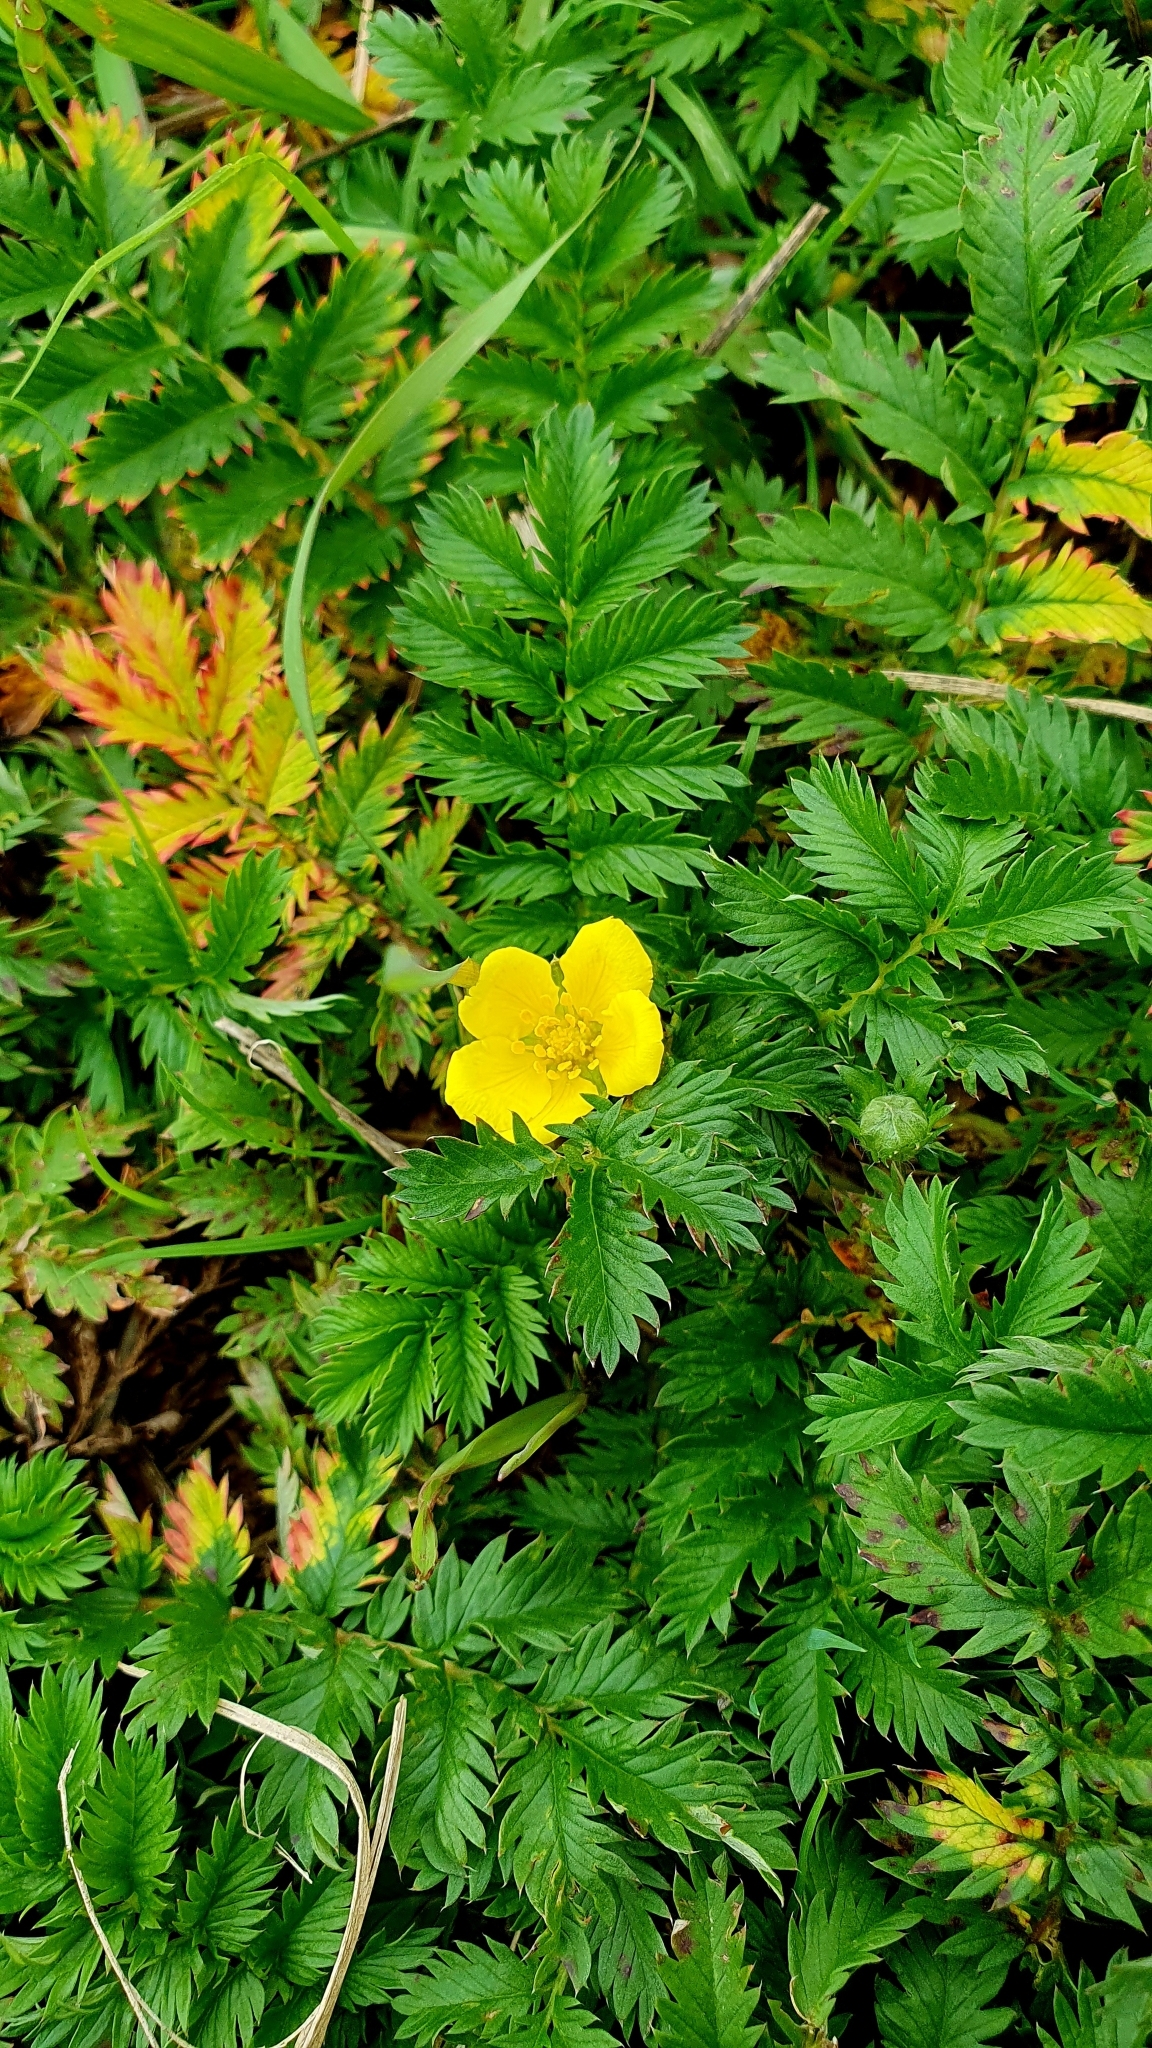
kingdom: Plantae
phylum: Tracheophyta
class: Magnoliopsida
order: Rosales
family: Rosaceae
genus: Argentina
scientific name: Argentina anserina
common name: Common silverweed
